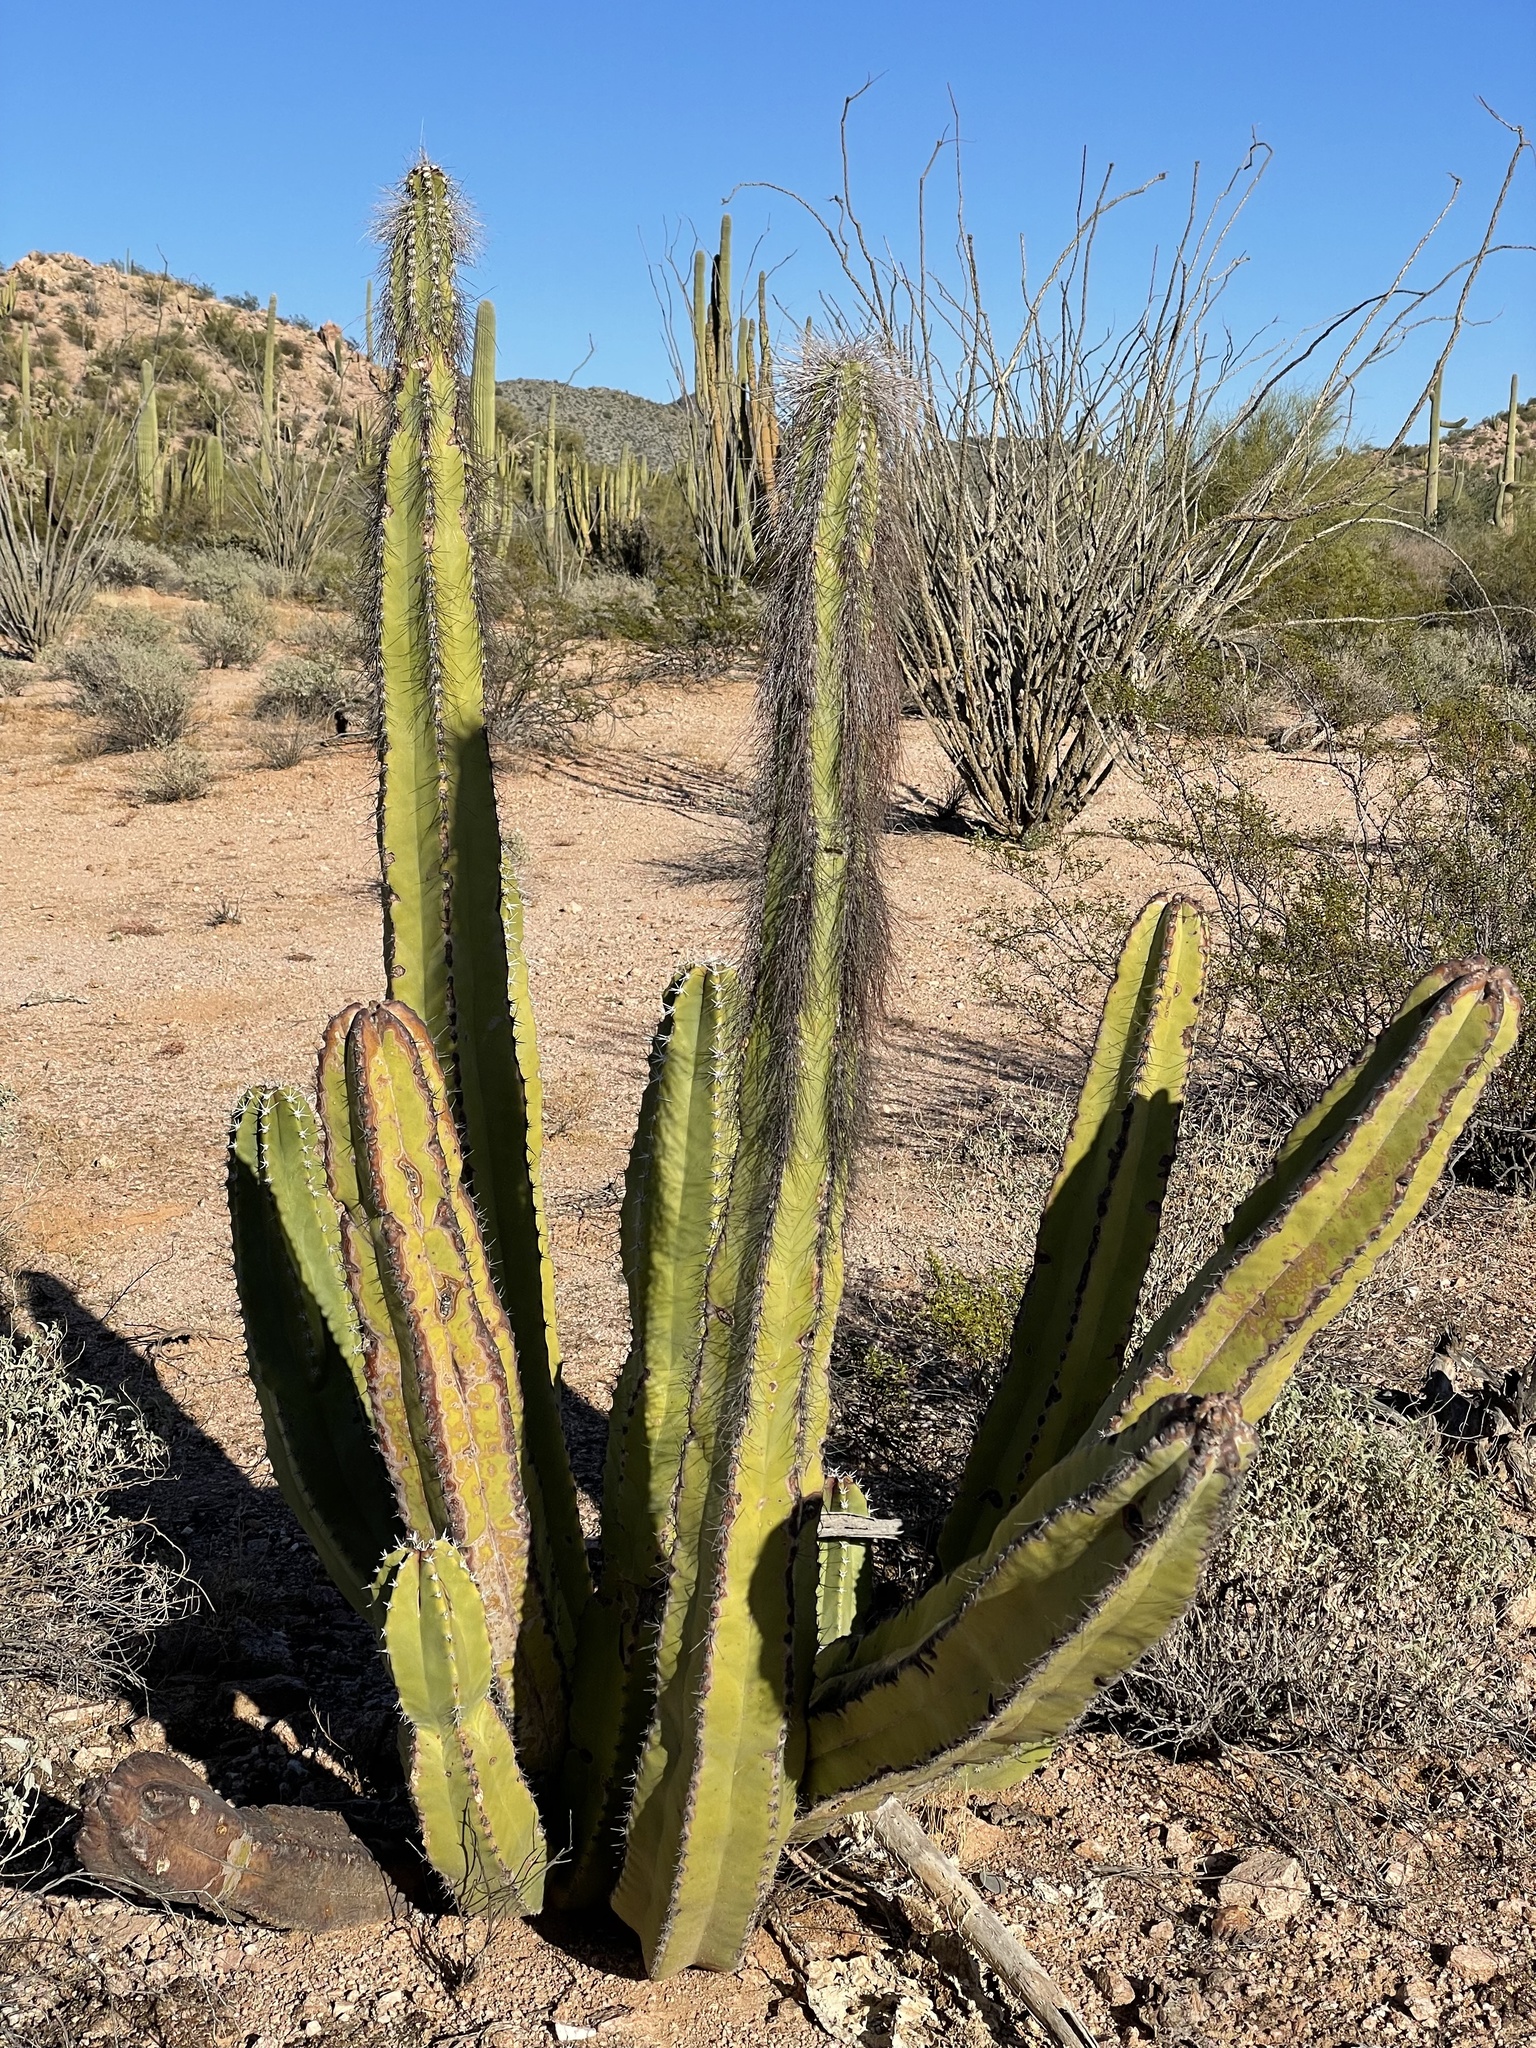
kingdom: Plantae
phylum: Tracheophyta
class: Magnoliopsida
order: Caryophyllales
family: Cactaceae
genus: Pachycereus
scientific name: Pachycereus schottii
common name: Senita cactus
